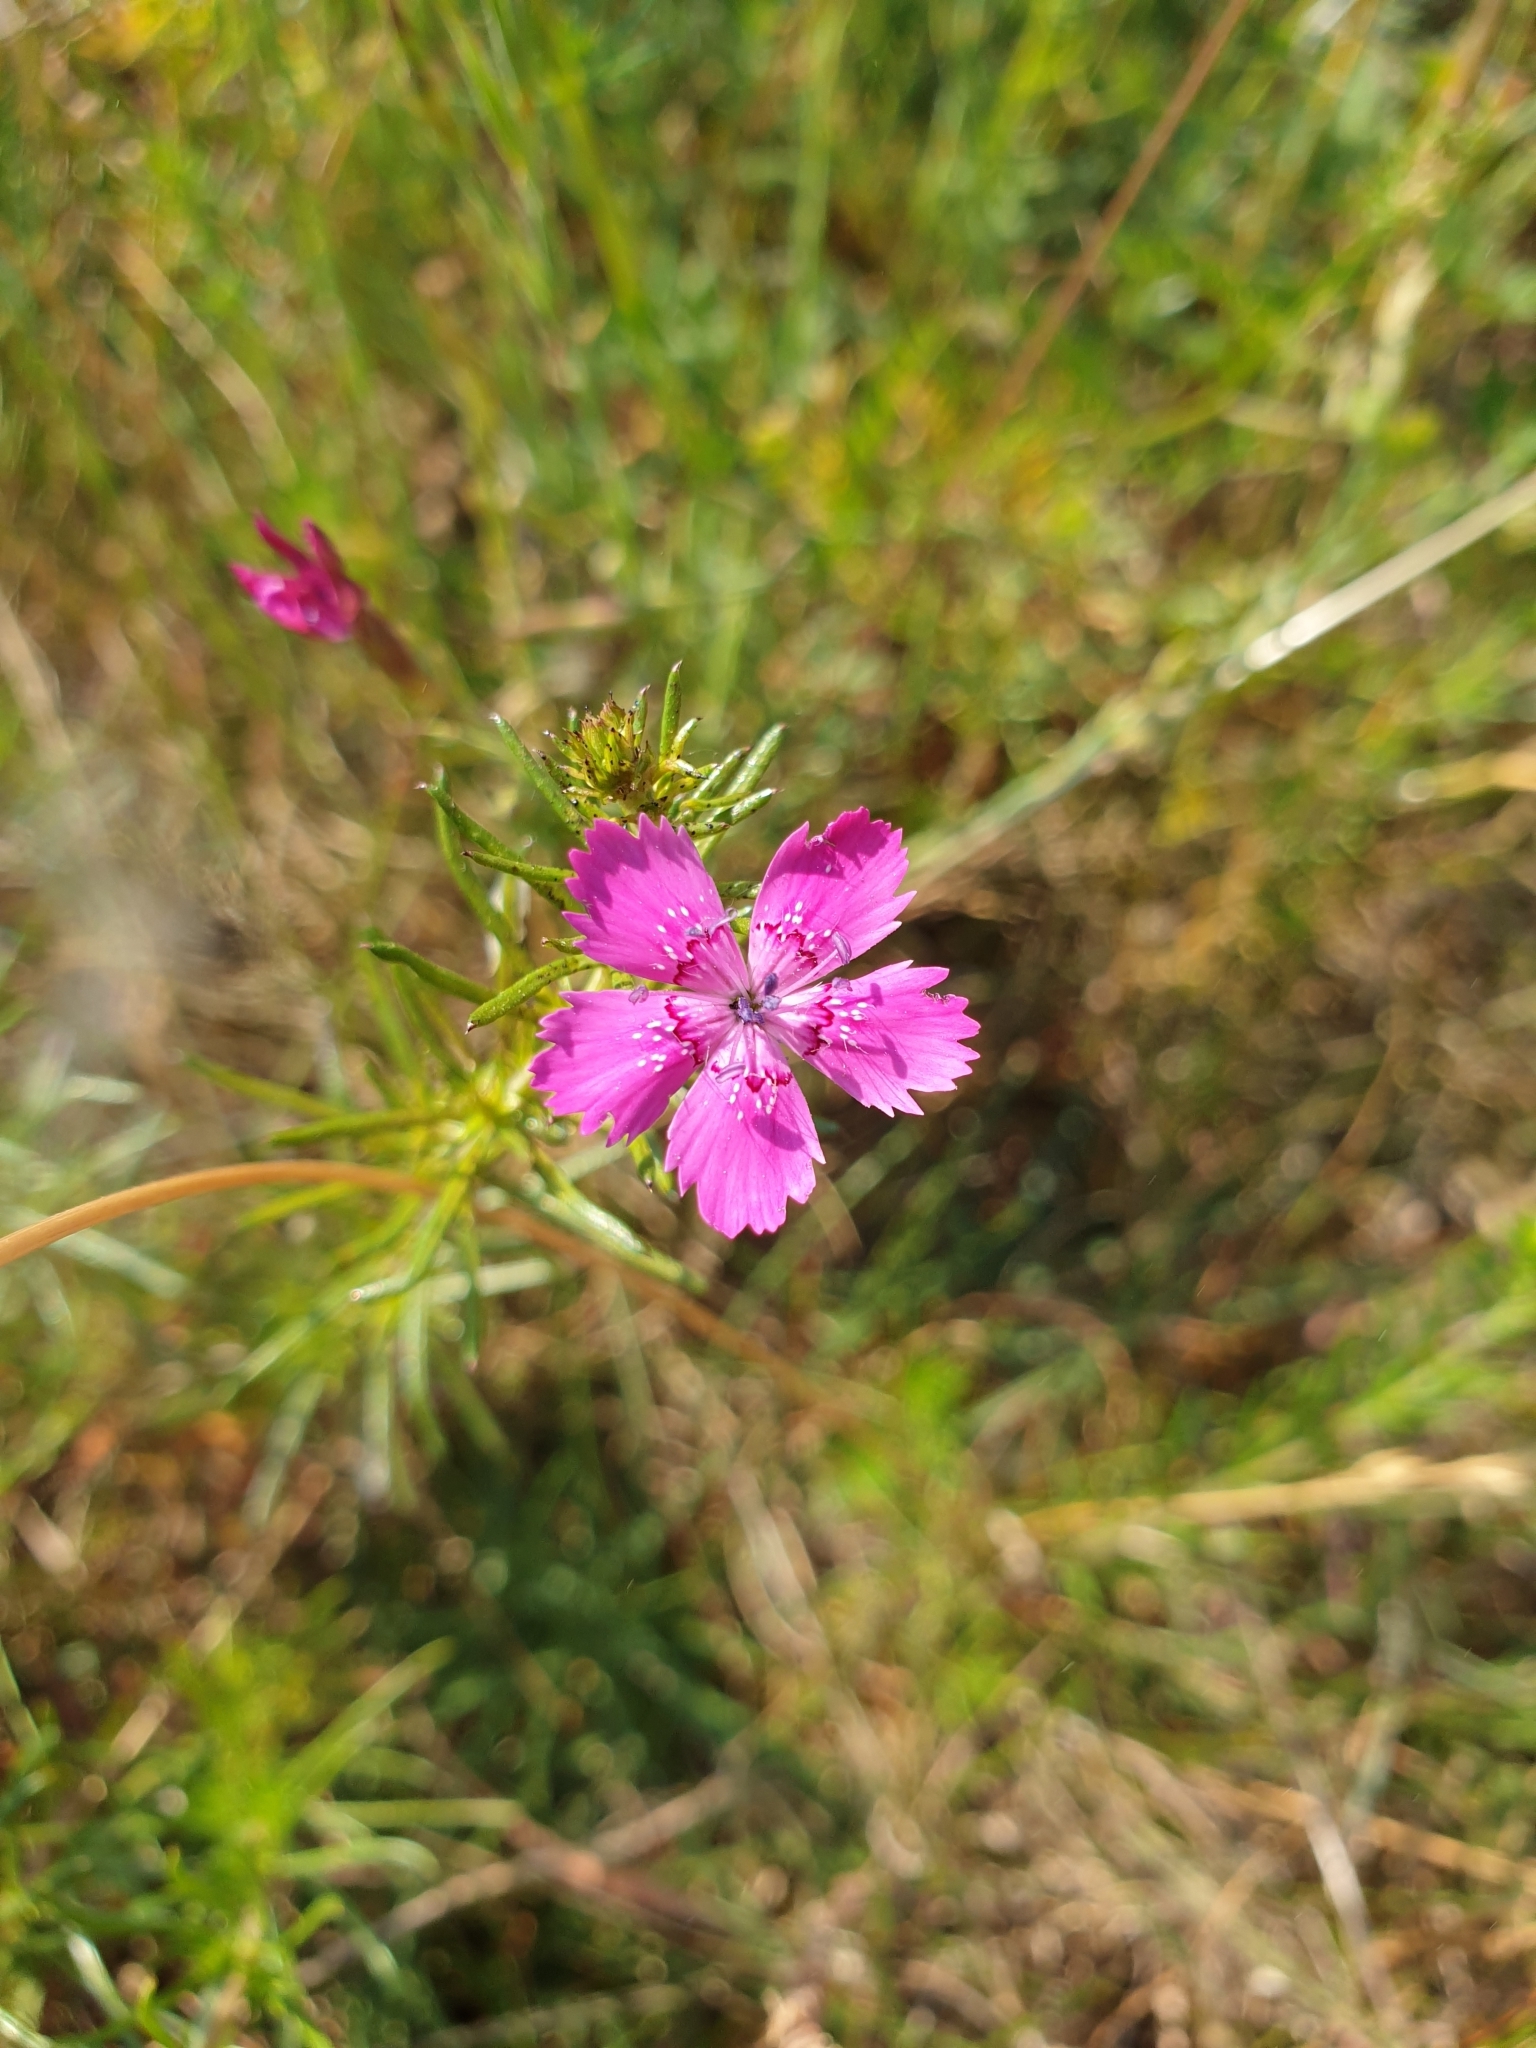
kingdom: Plantae
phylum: Tracheophyta
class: Magnoliopsida
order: Caryophyllales
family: Caryophyllaceae
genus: Dianthus
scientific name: Dianthus deltoides
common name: Maiden pink
